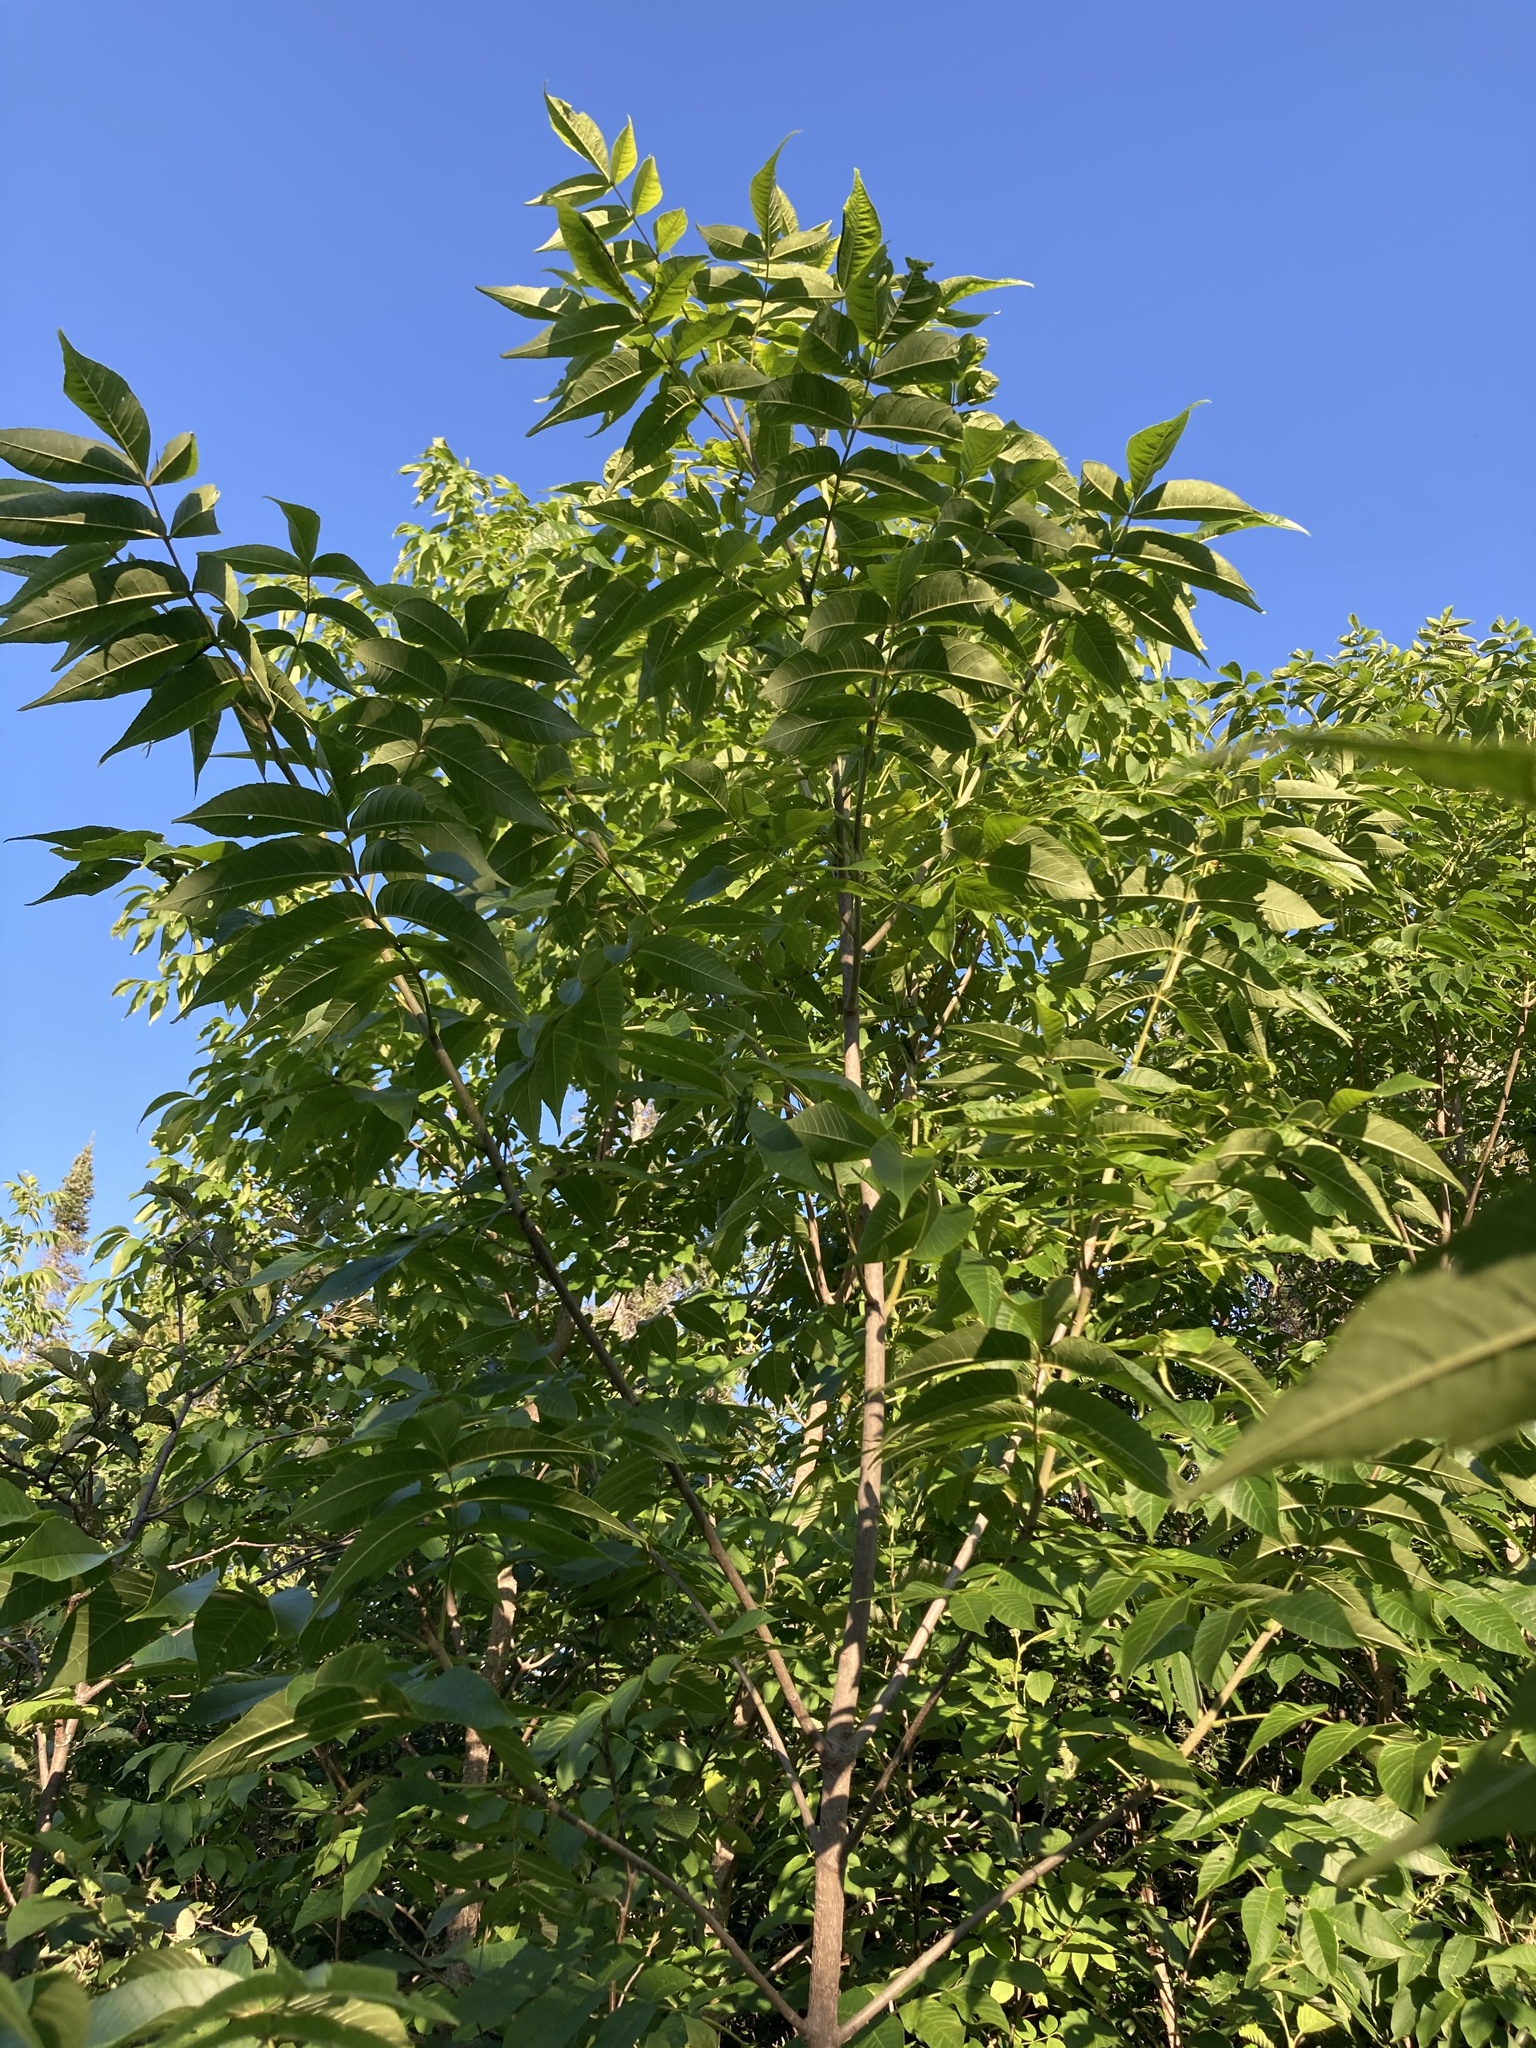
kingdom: Plantae
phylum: Tracheophyta
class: Magnoliopsida
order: Lamiales
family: Oleaceae
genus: Fraxinus
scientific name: Fraxinus nigra
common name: Black ash
